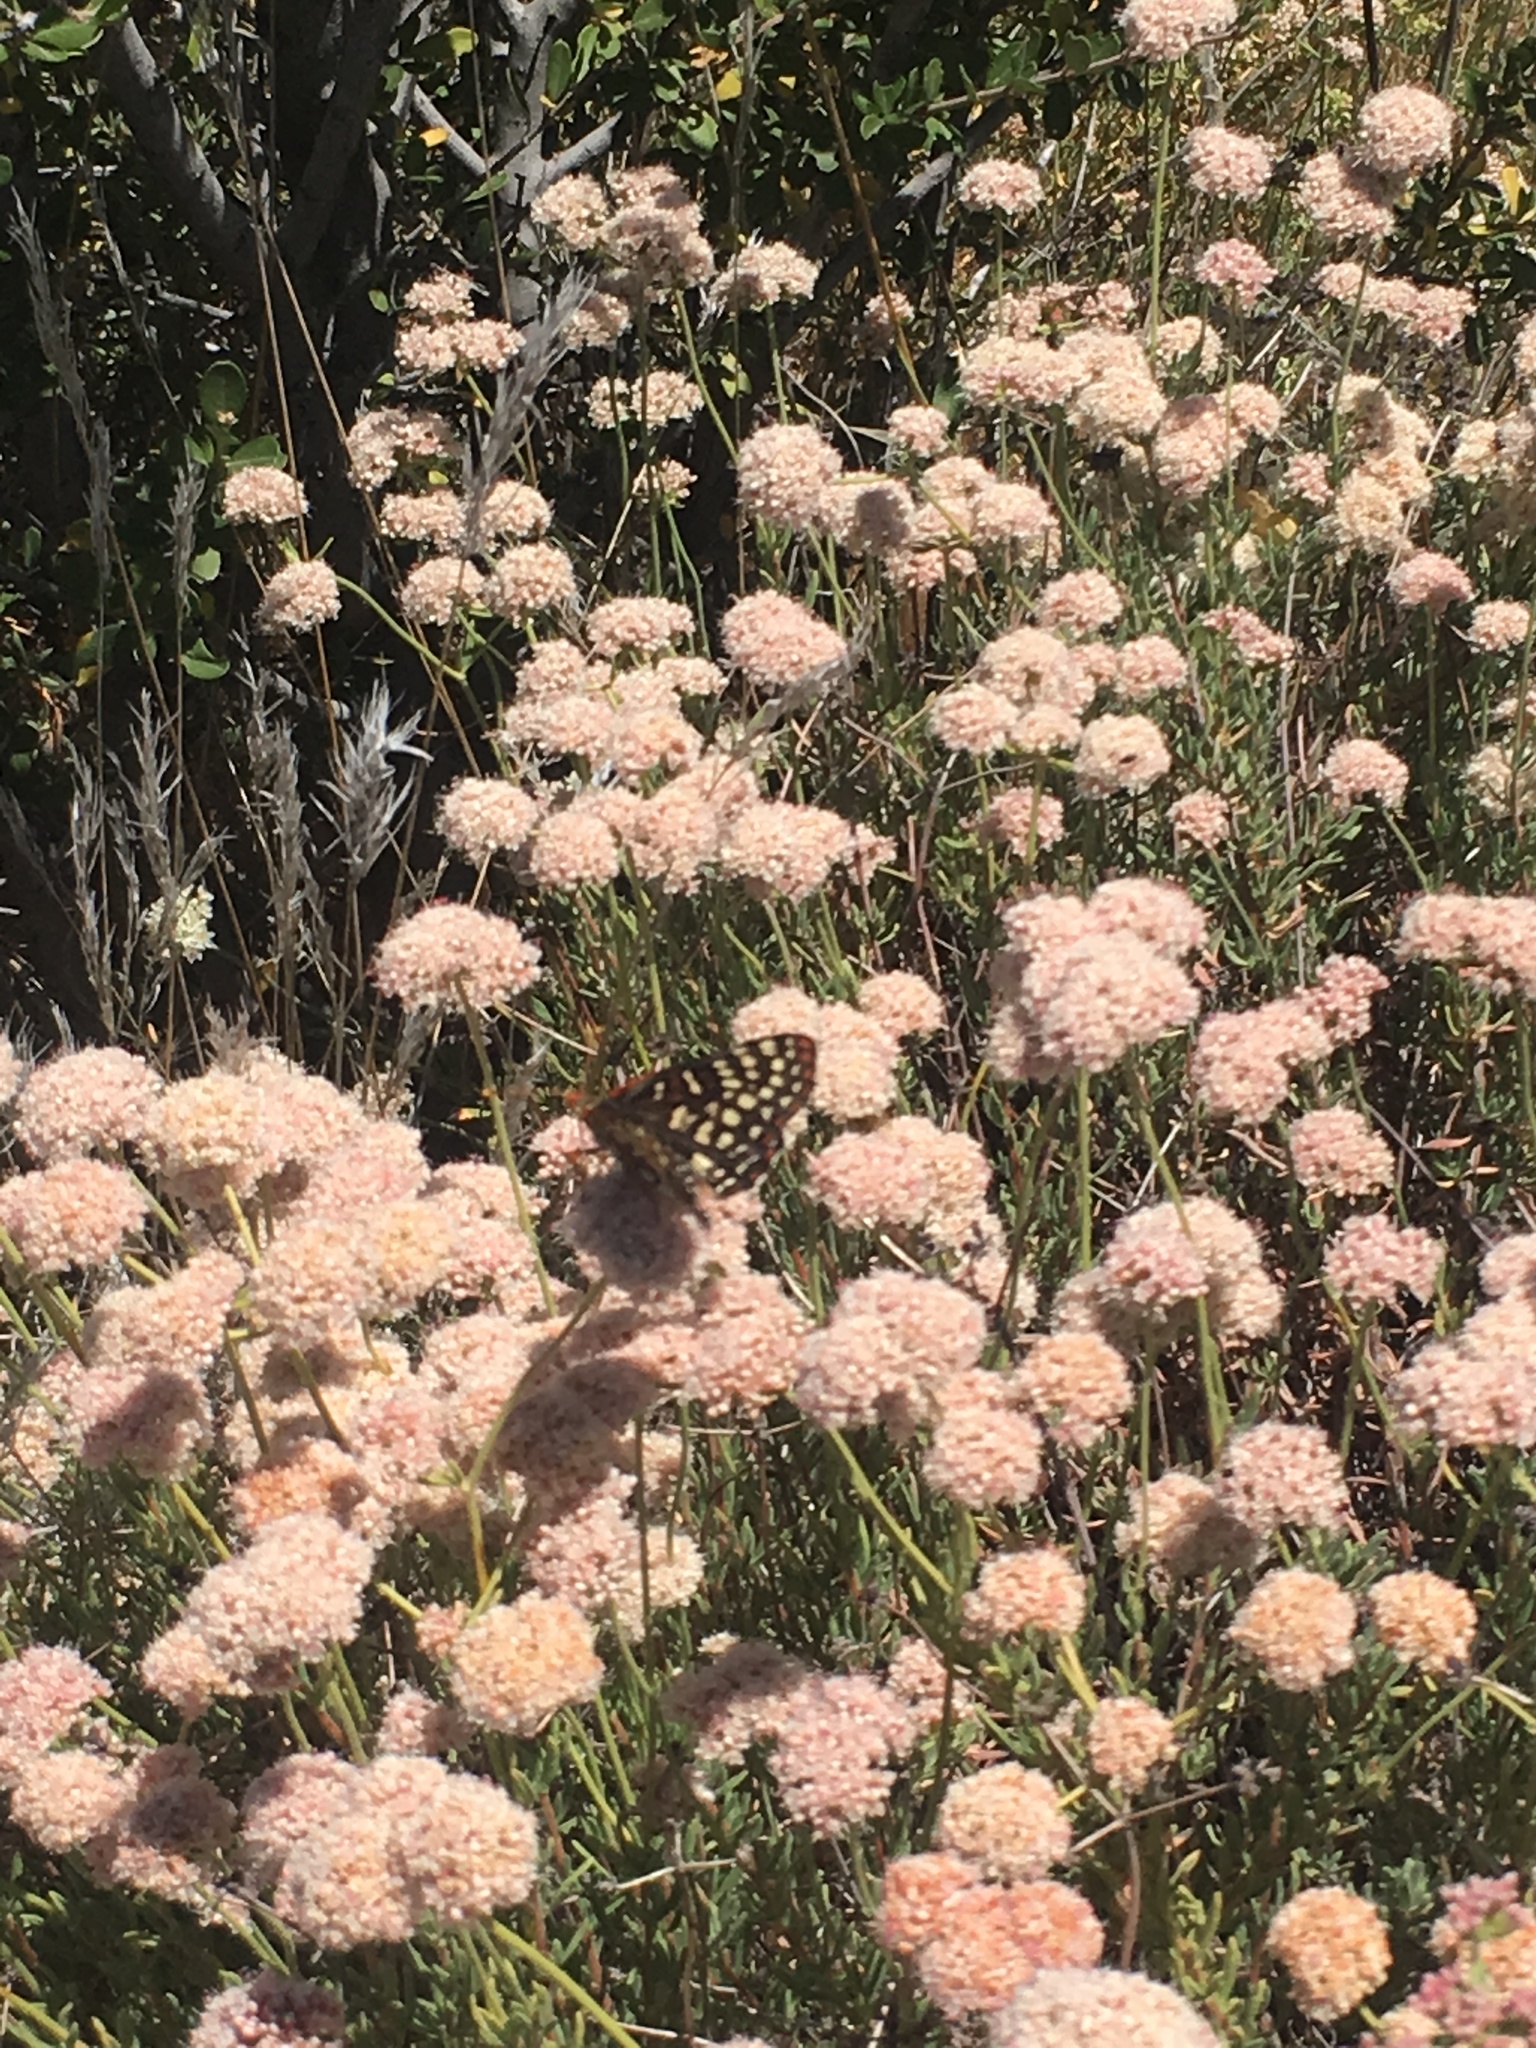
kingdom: Plantae
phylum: Tracheophyta
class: Magnoliopsida
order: Caryophyllales
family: Polygonaceae
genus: Eriogonum
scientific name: Eriogonum fasciculatum
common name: California wild buckwheat
